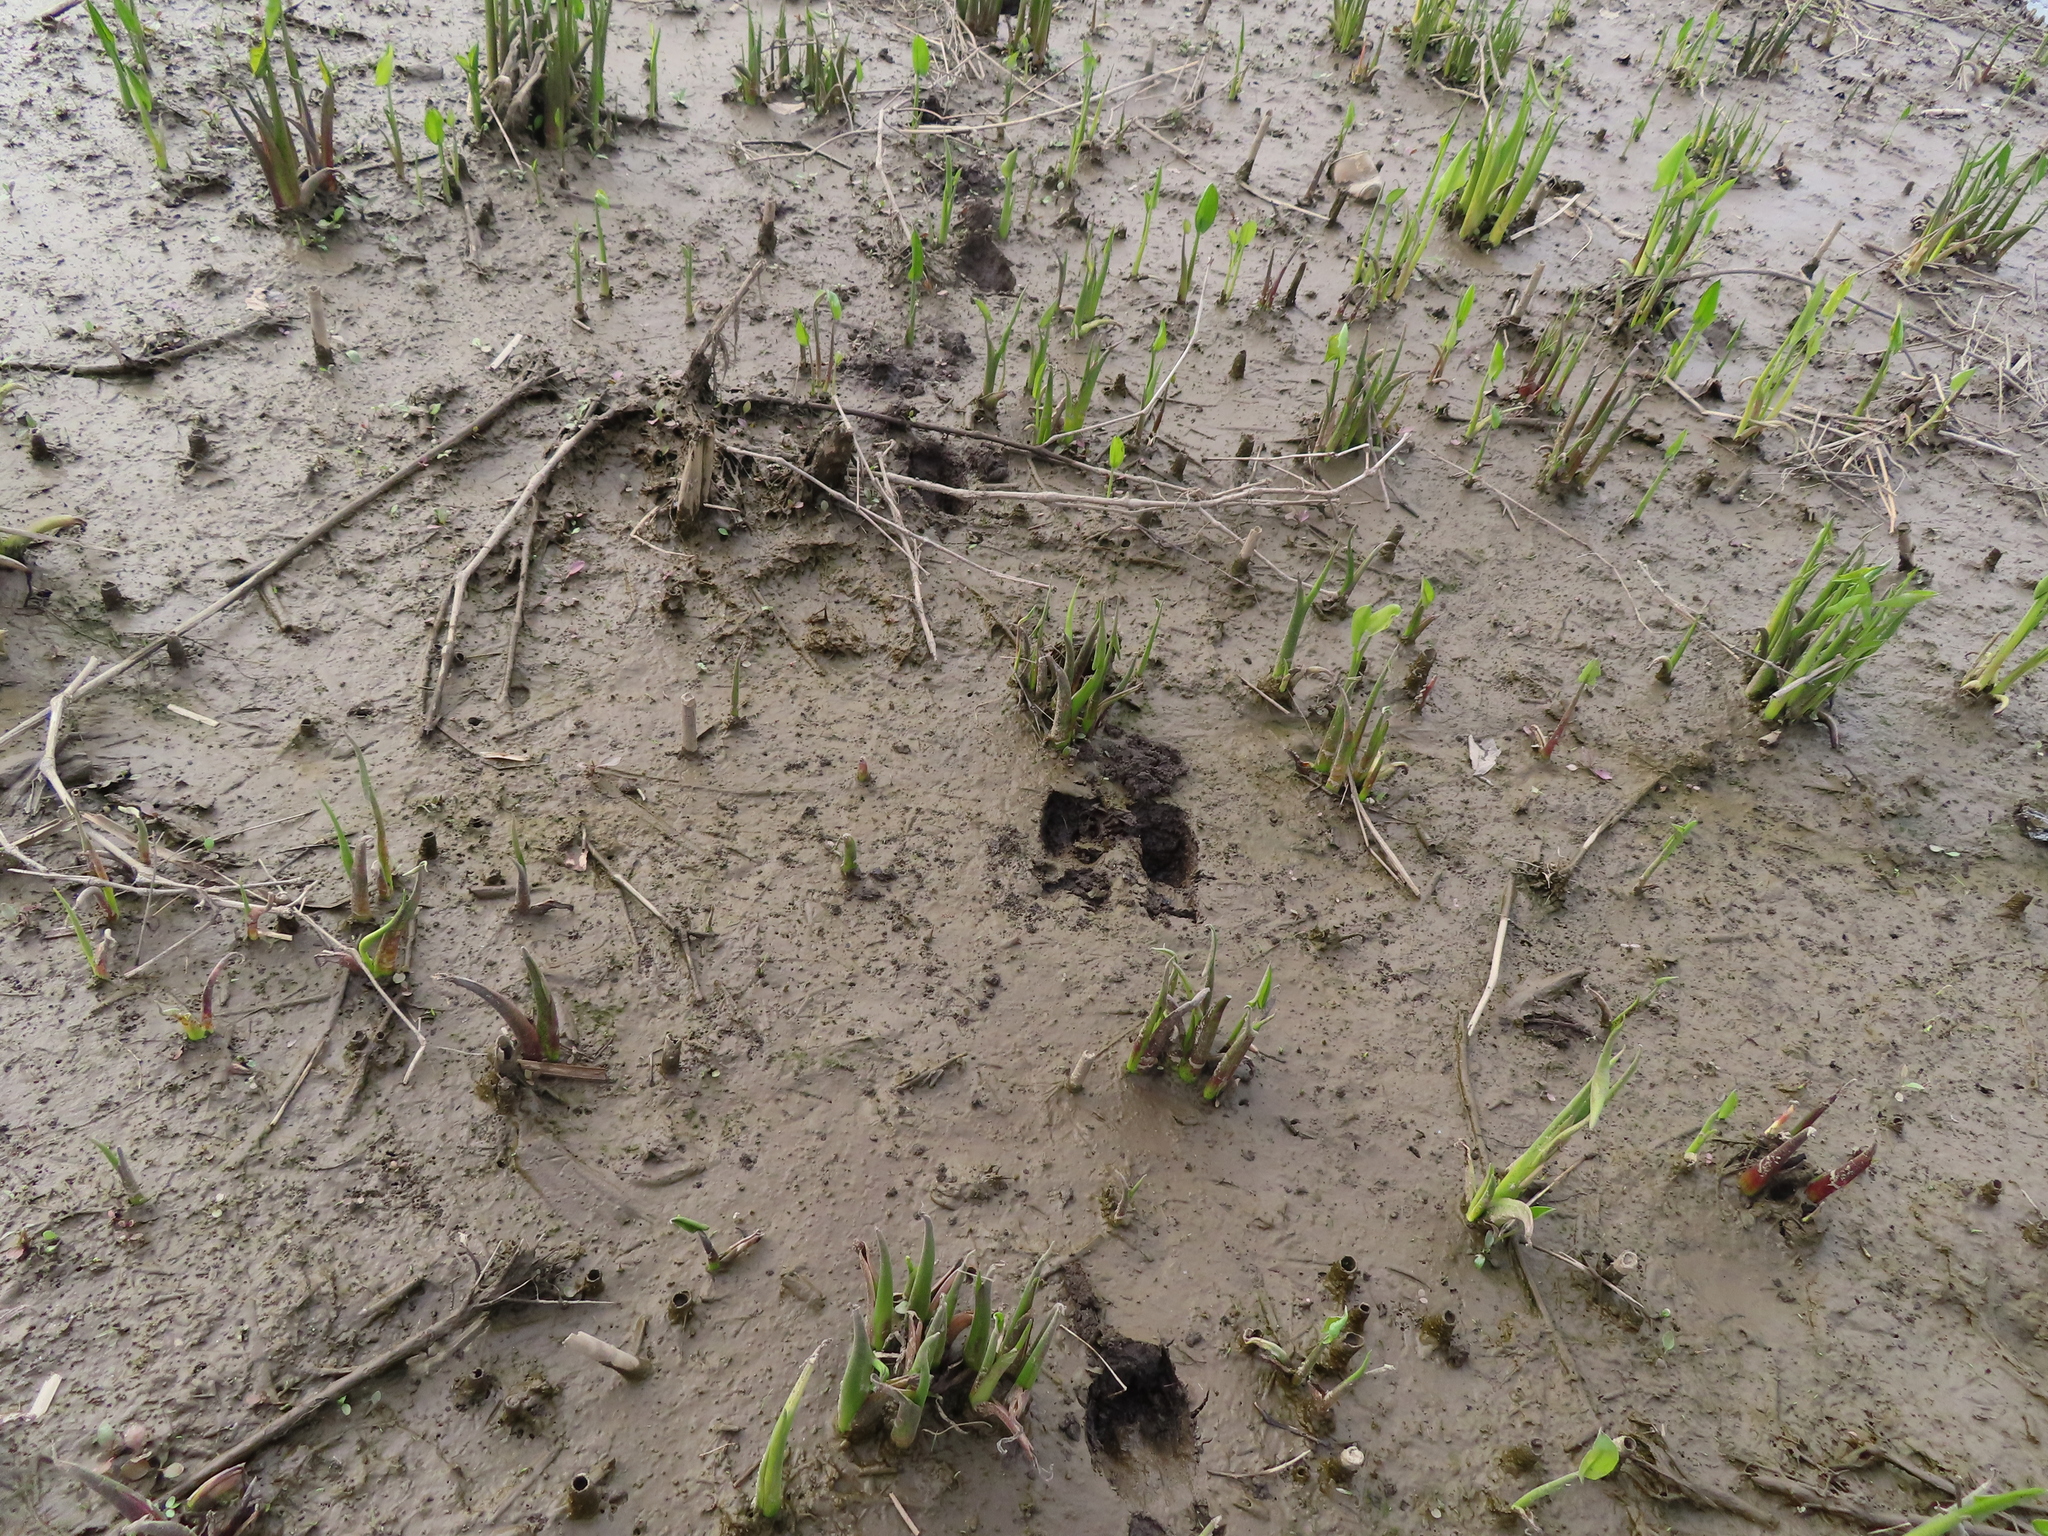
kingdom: Animalia
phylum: Chordata
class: Mammalia
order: Artiodactyla
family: Cervidae
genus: Odocoileus
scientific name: Odocoileus virginianus
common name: White-tailed deer
